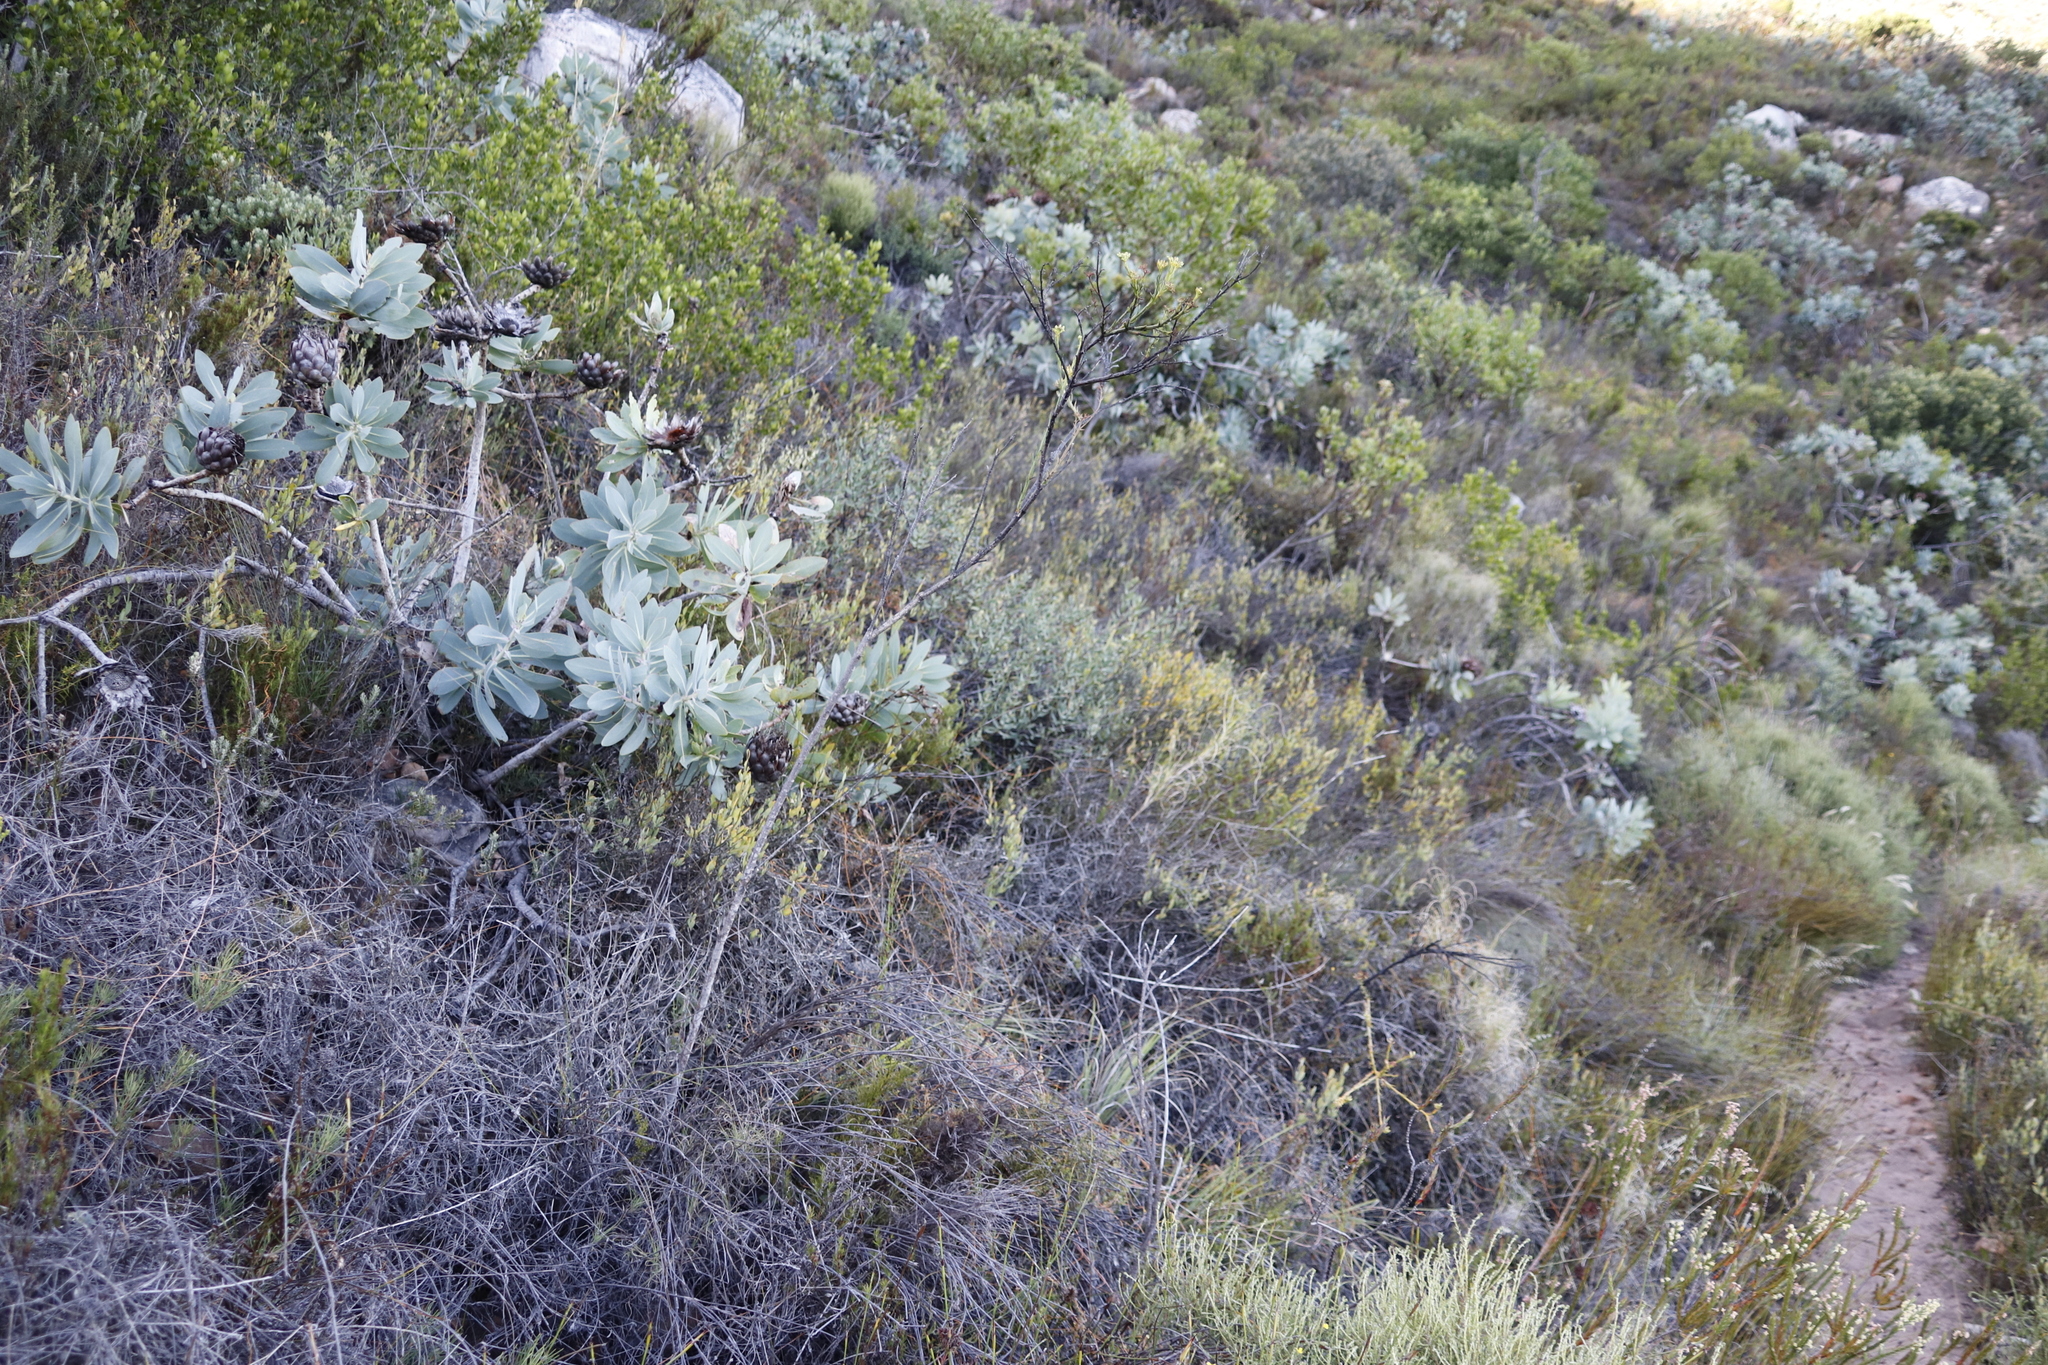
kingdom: Plantae
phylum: Tracheophyta
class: Magnoliopsida
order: Proteales
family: Proteaceae
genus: Protea
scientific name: Protea nitida
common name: Tree protea
